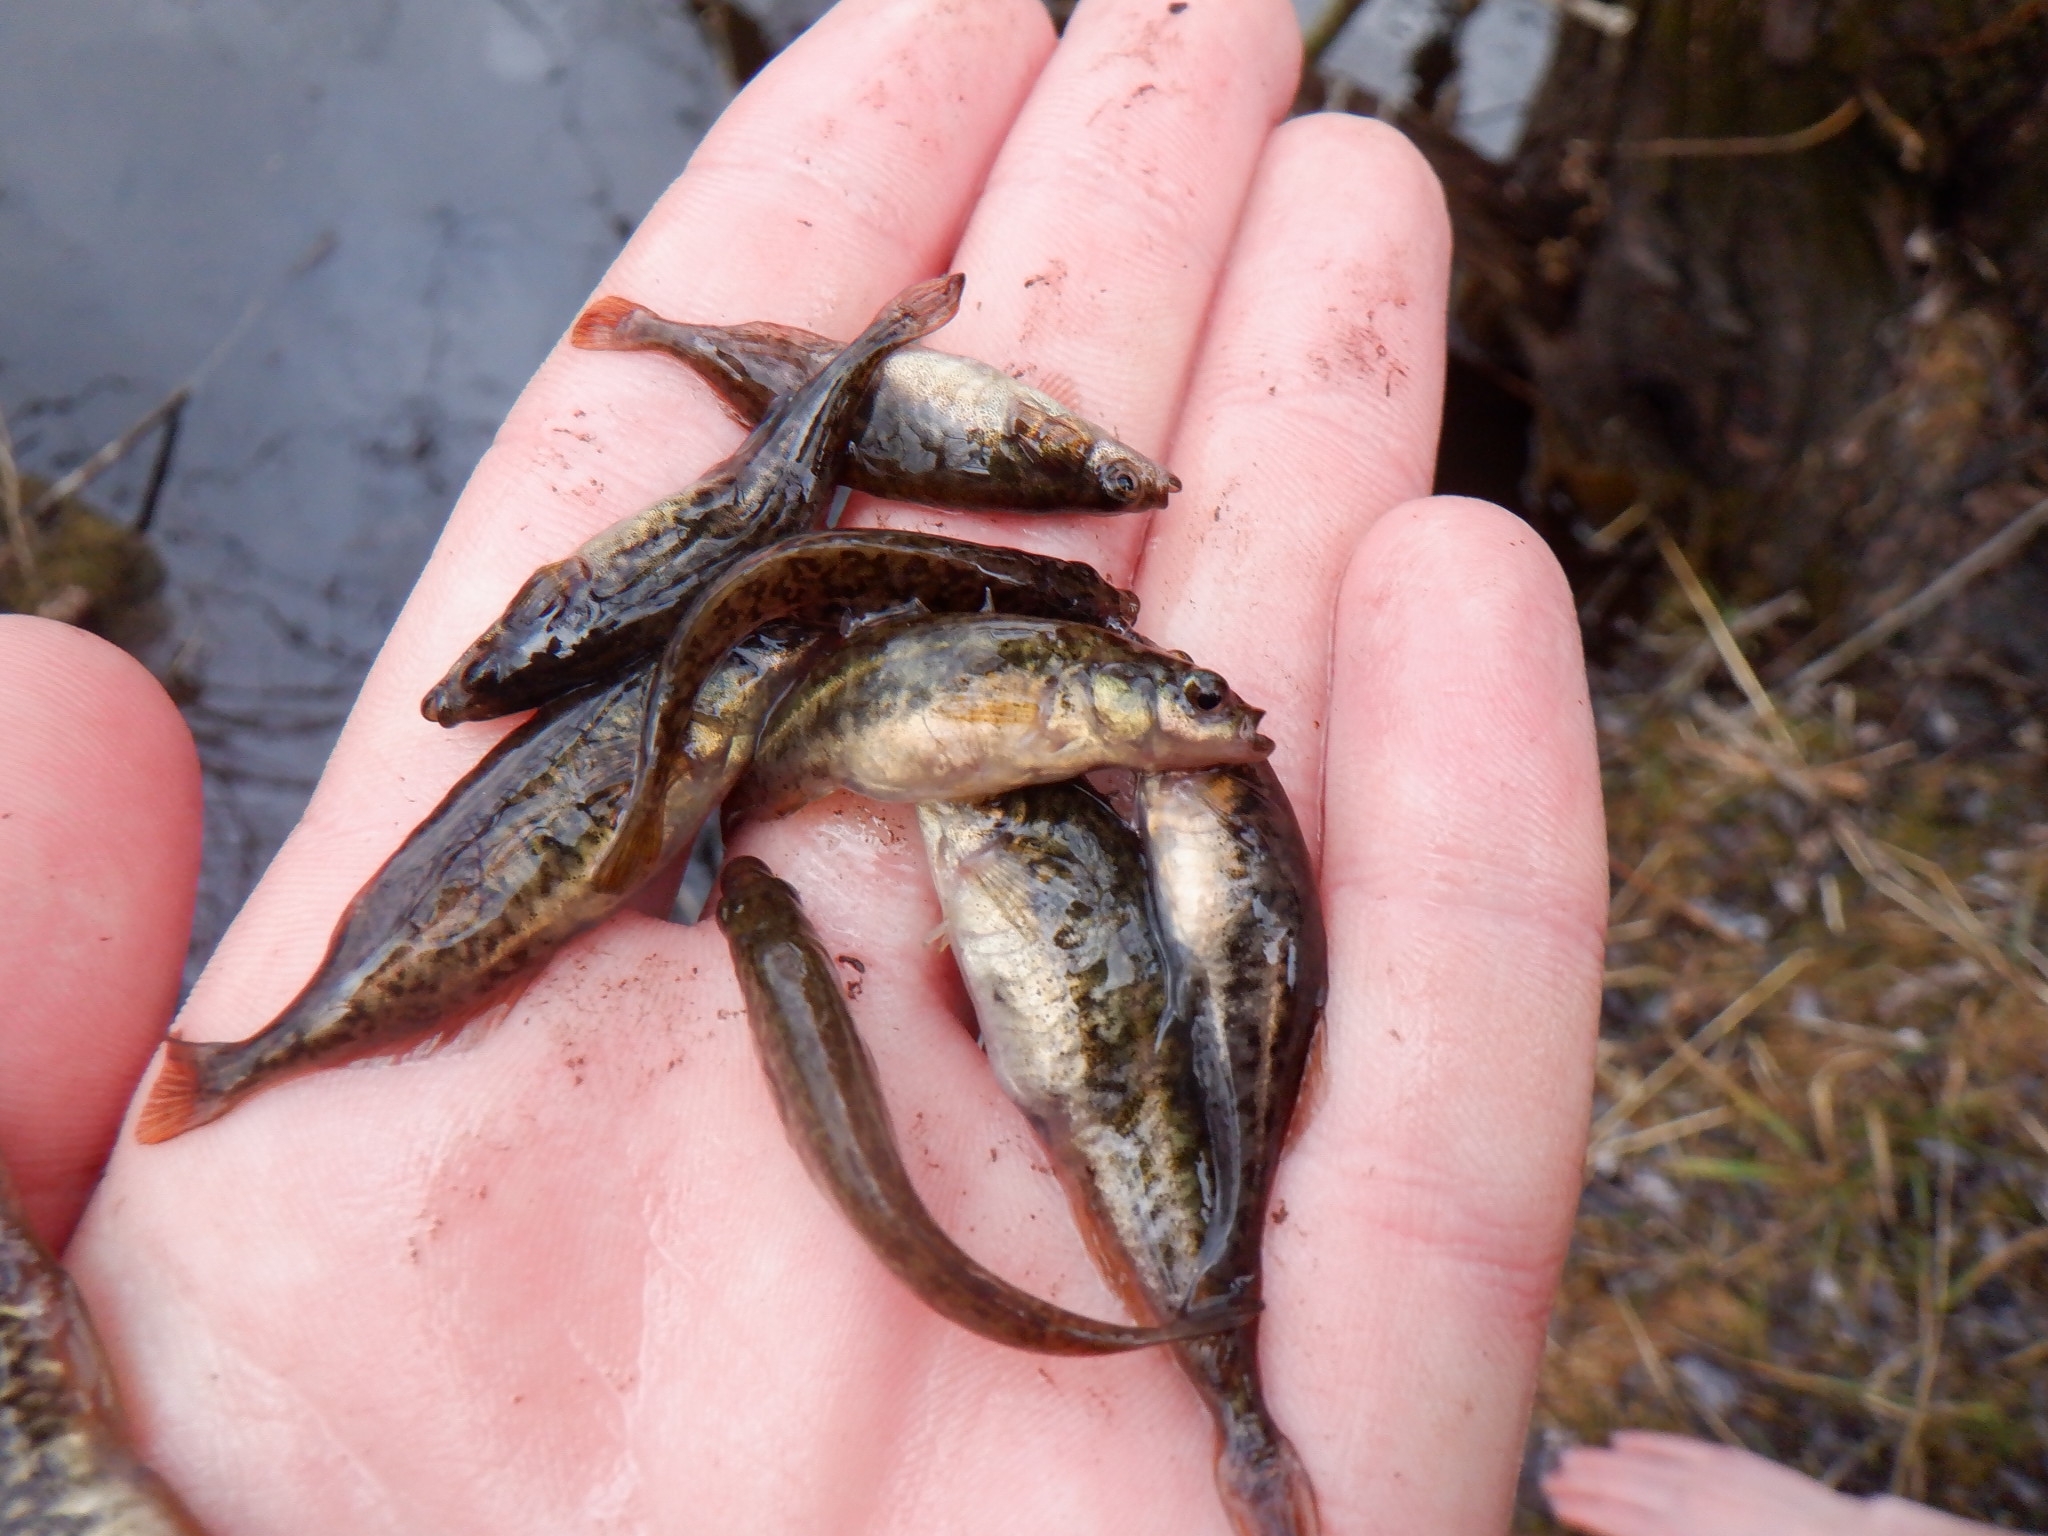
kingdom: Animalia
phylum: Chordata
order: Gasterosteiformes
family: Gasterosteidae
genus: Culaea
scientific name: Culaea inconstans
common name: Brook stickleback
